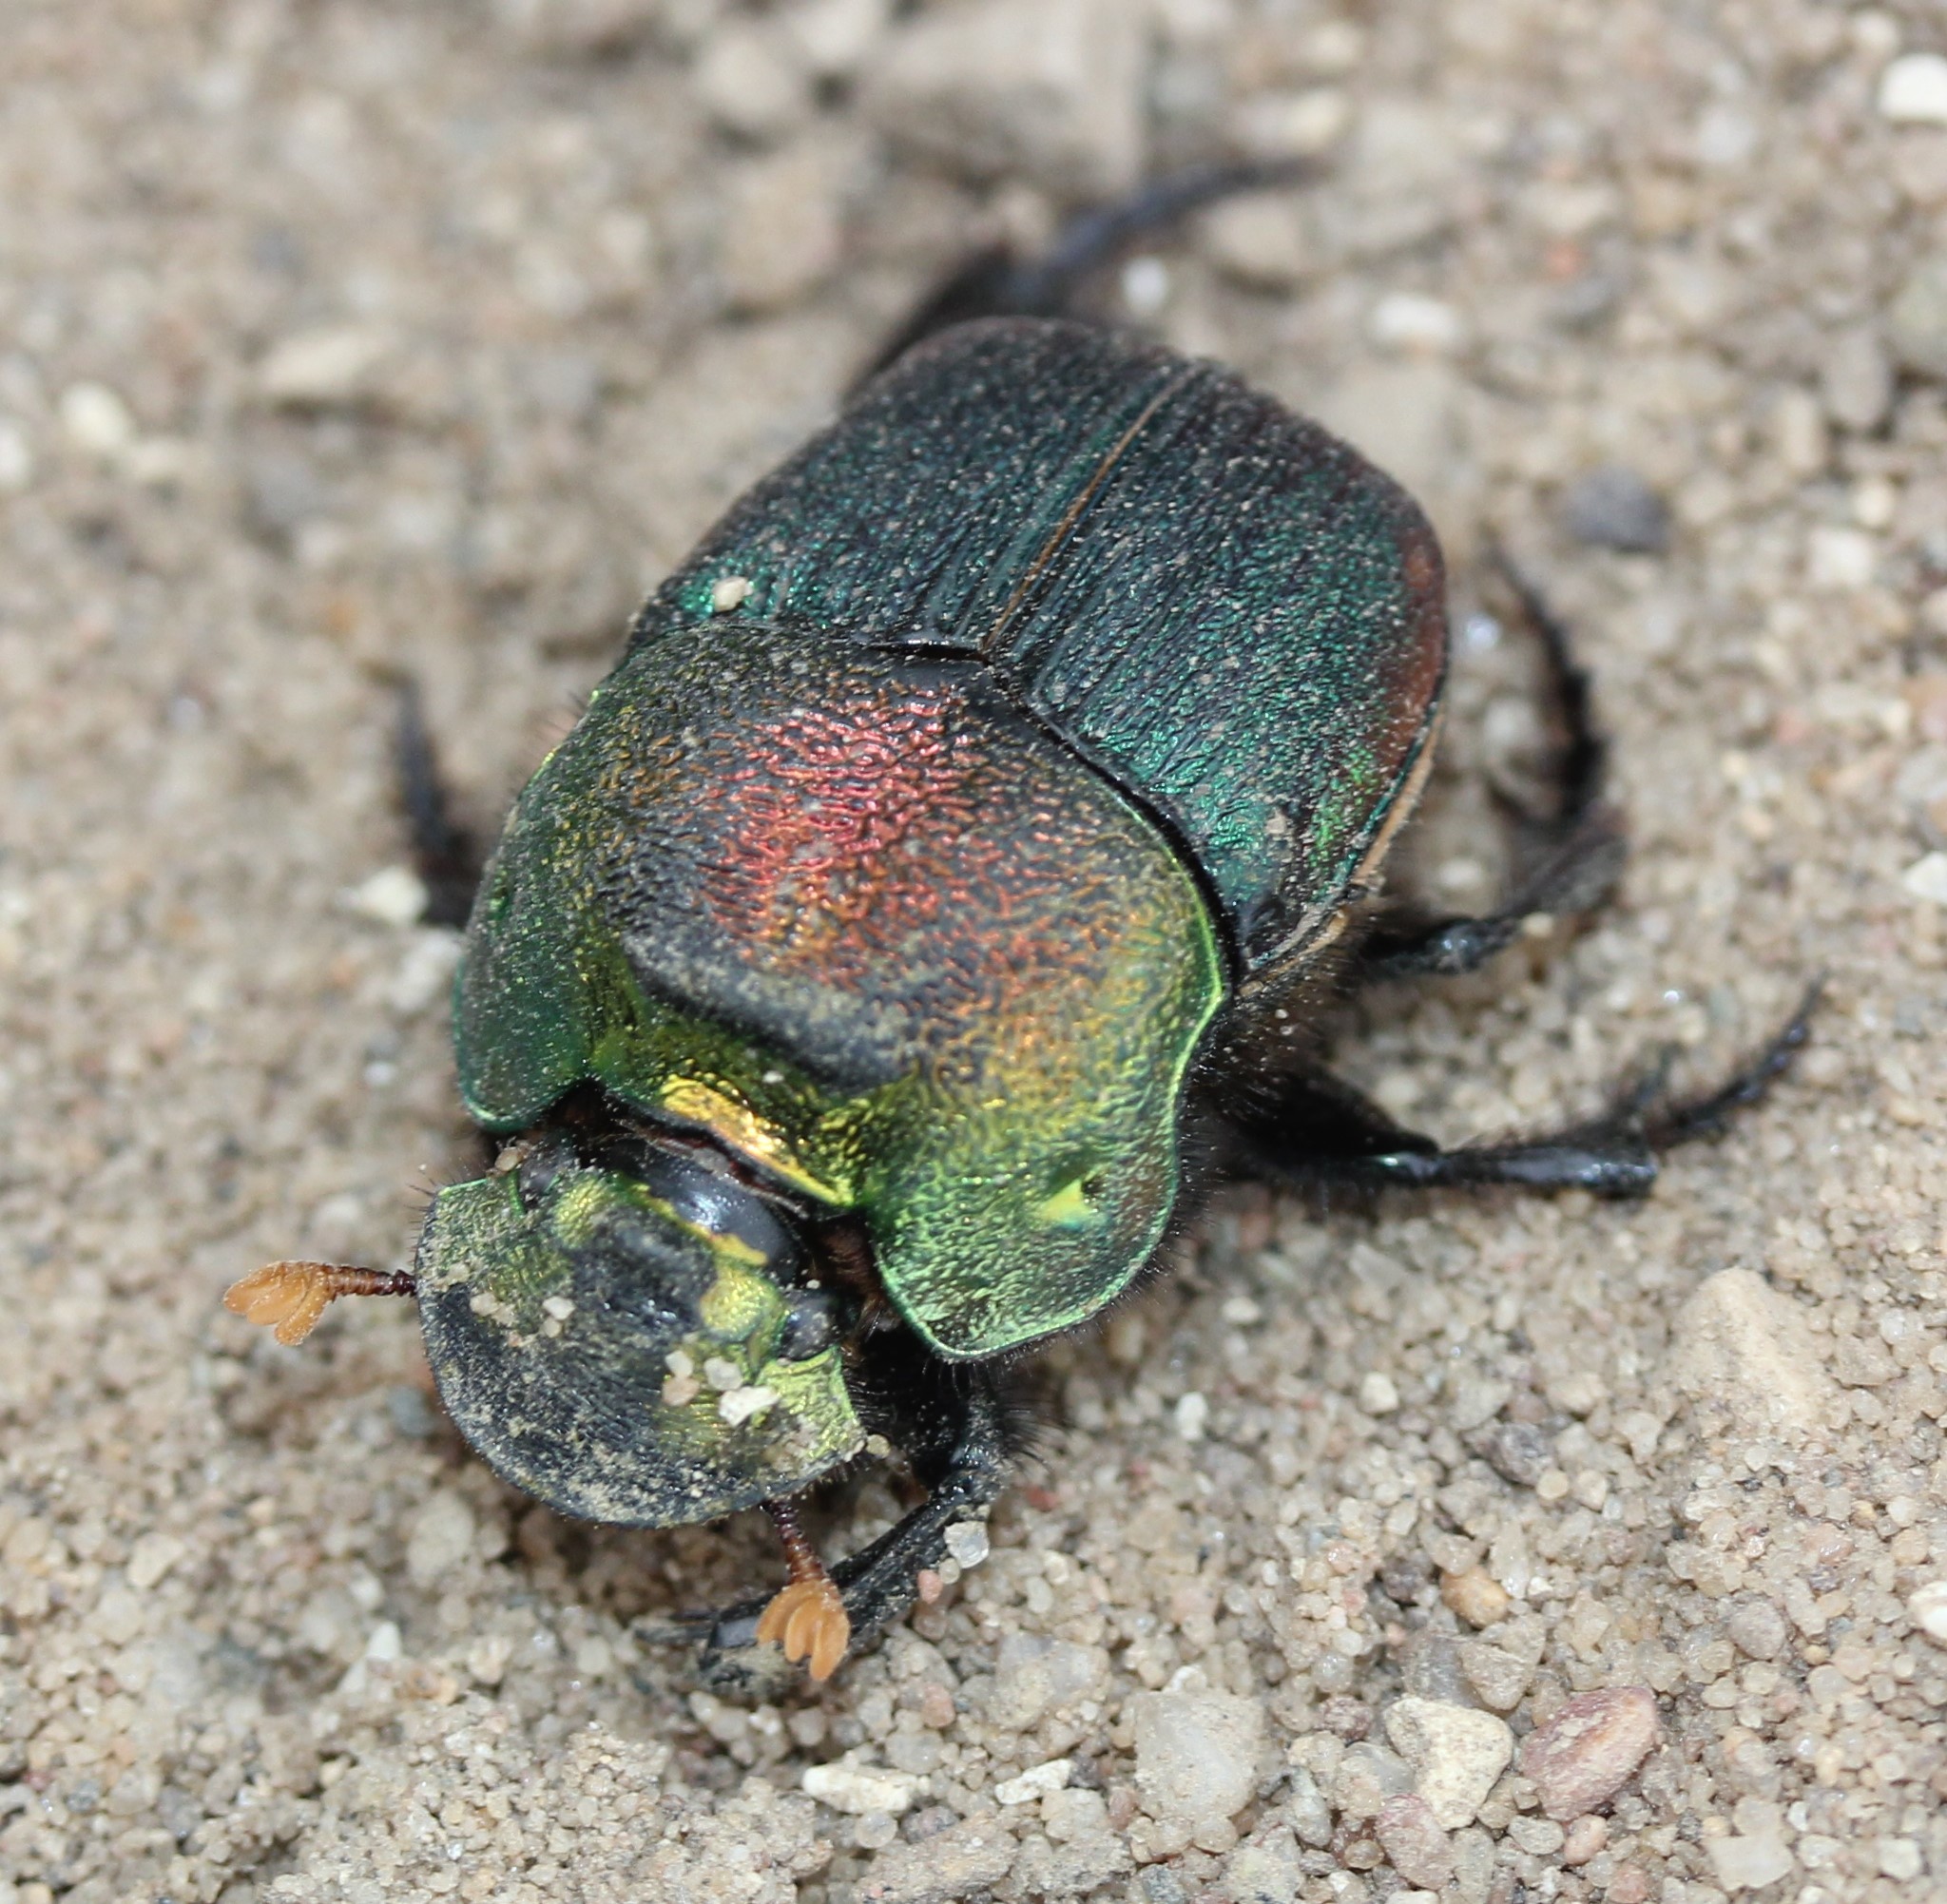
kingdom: Animalia
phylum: Arthropoda
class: Insecta
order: Coleoptera
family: Scarabaeidae
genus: Phanaeus
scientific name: Phanaeus vindex
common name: Rainbow scarab
